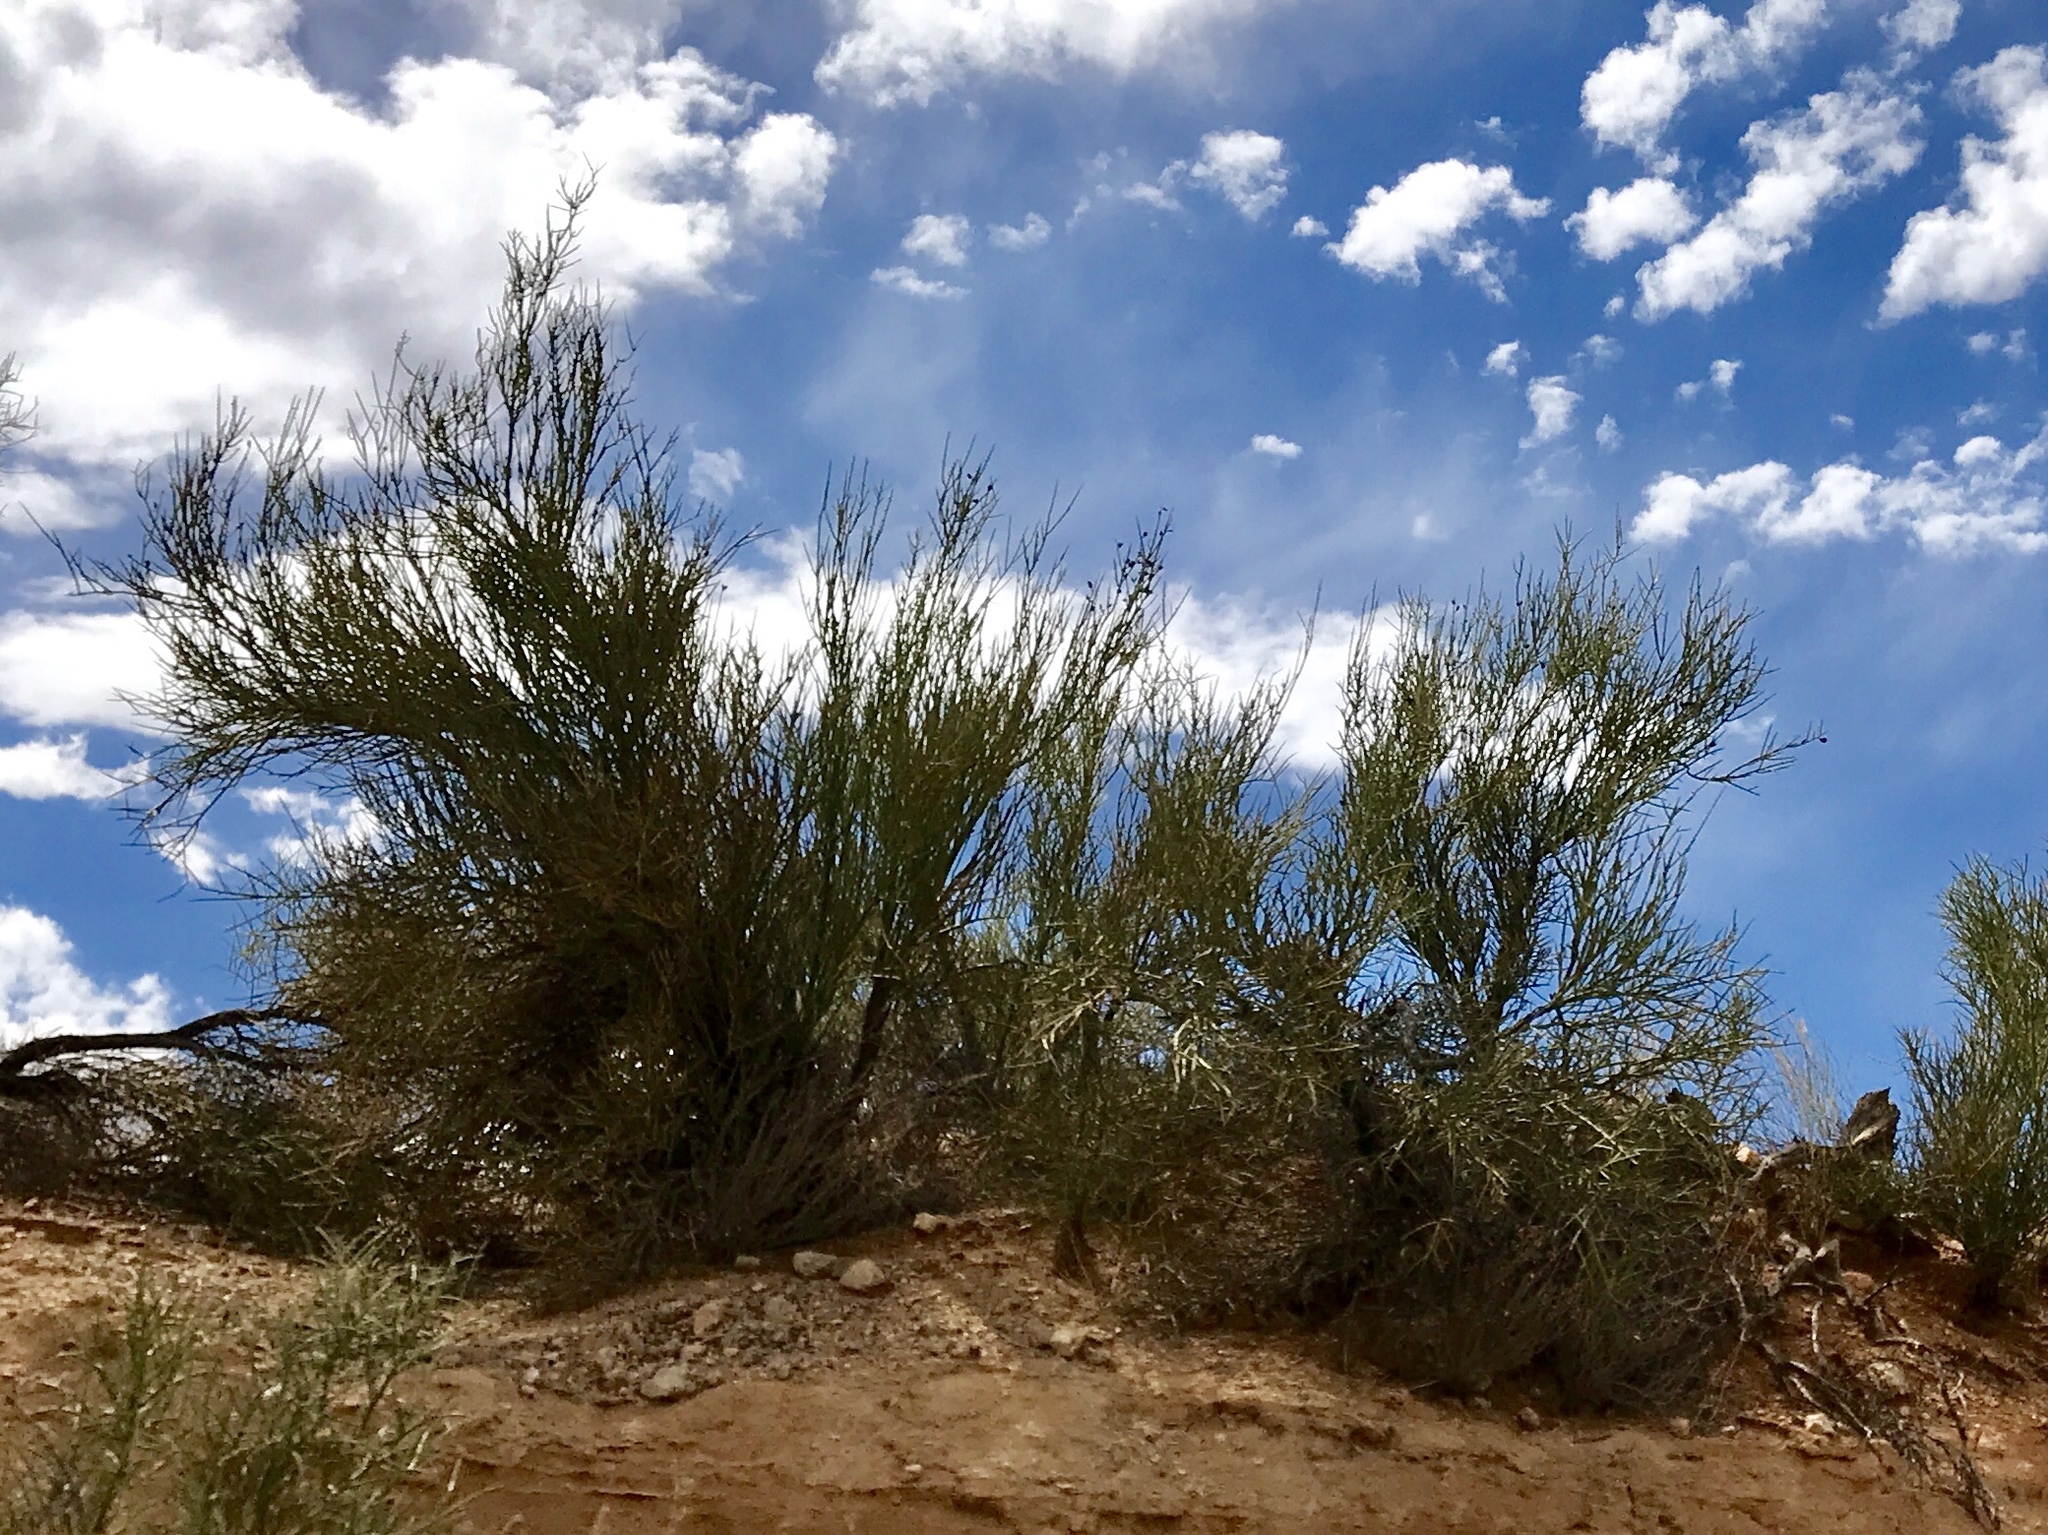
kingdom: Plantae
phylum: Tracheophyta
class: Magnoliopsida
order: Celastrales
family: Celastraceae
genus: Canotia
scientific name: Canotia holacantha
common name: Crucifixion thorns
